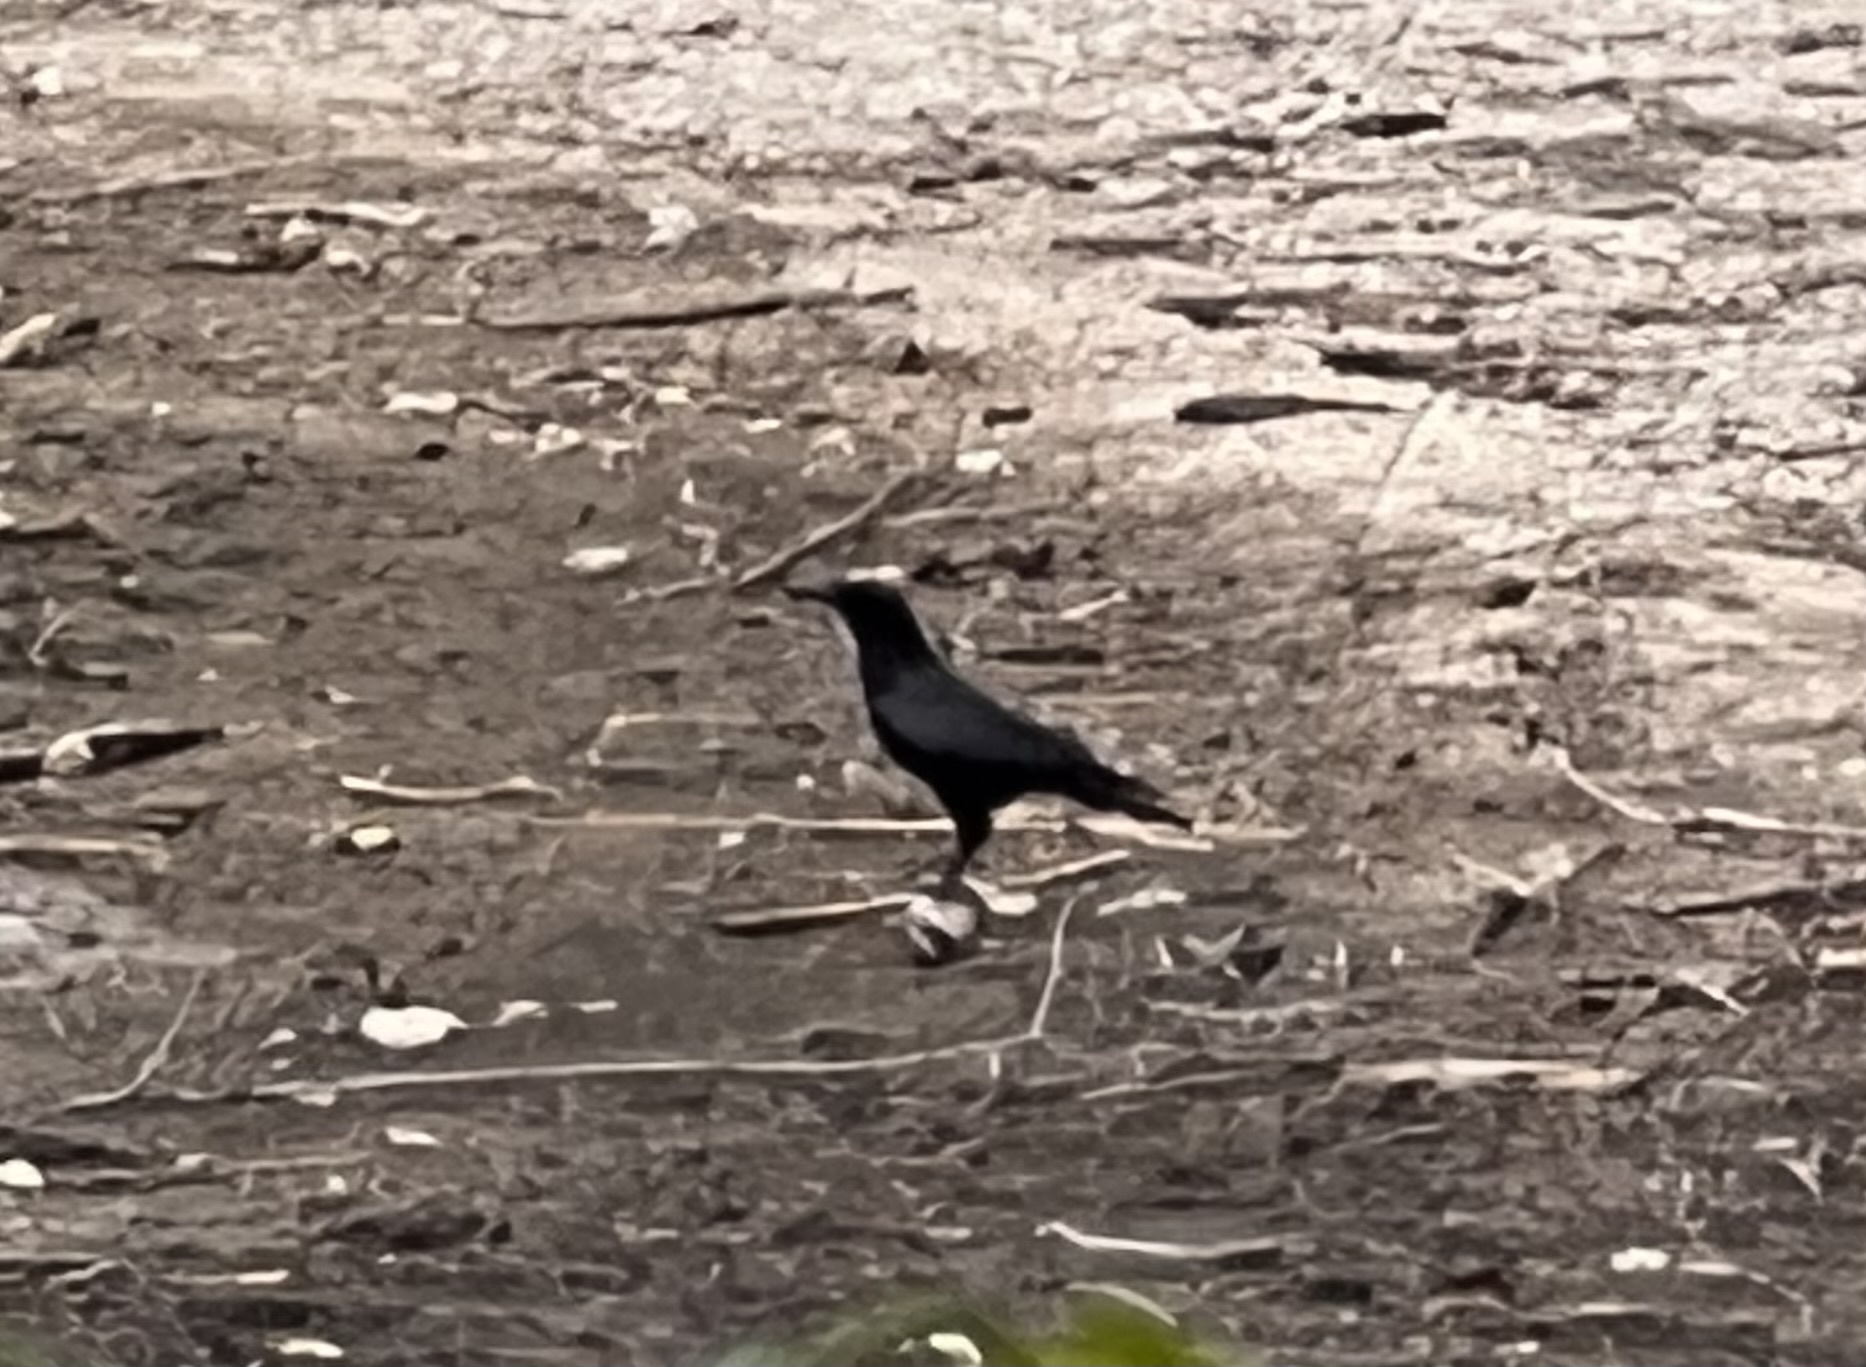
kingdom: Animalia
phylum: Chordata
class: Aves
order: Passeriformes
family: Corvidae
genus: Corvus
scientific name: Corvus brachyrhynchos
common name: American crow
